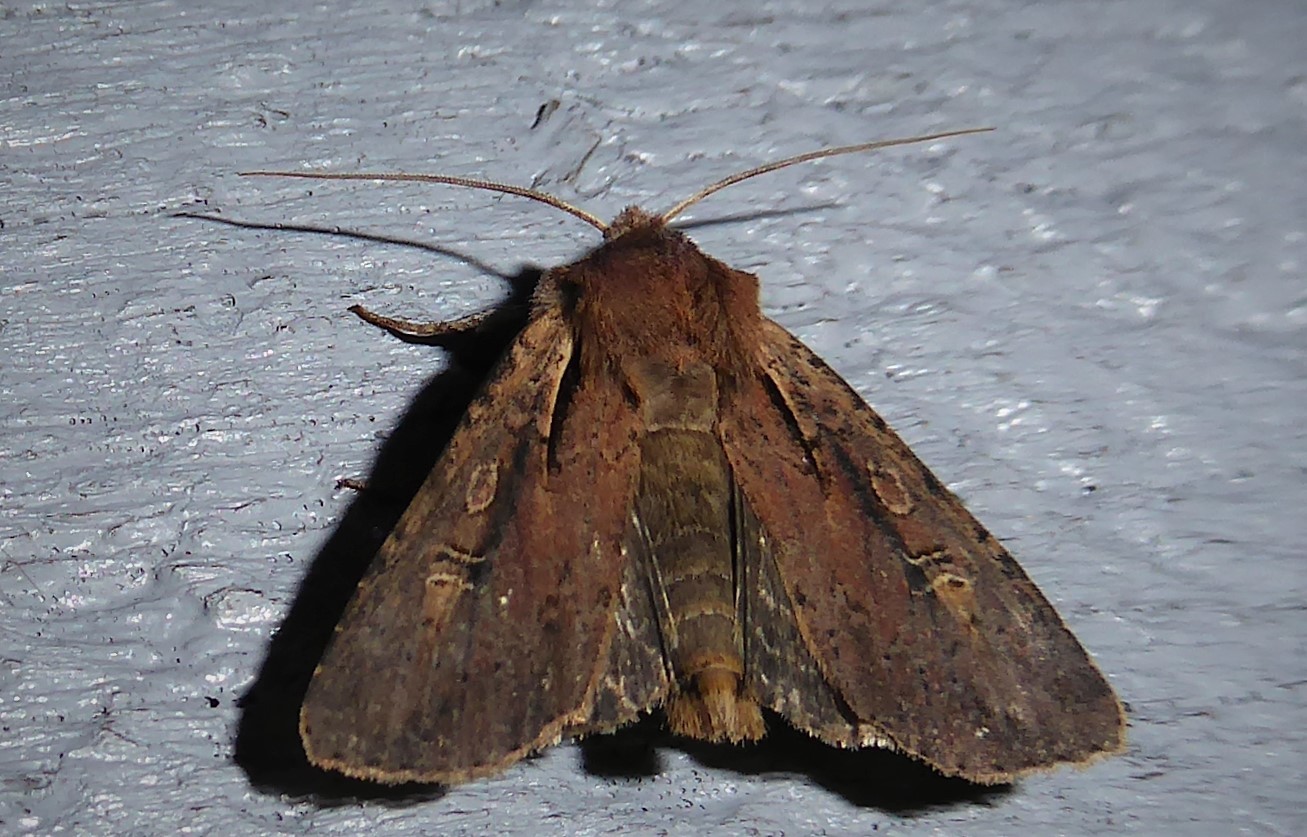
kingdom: Animalia
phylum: Arthropoda
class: Insecta
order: Lepidoptera
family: Noctuidae
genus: Ichneutica
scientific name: Ichneutica atristriga
